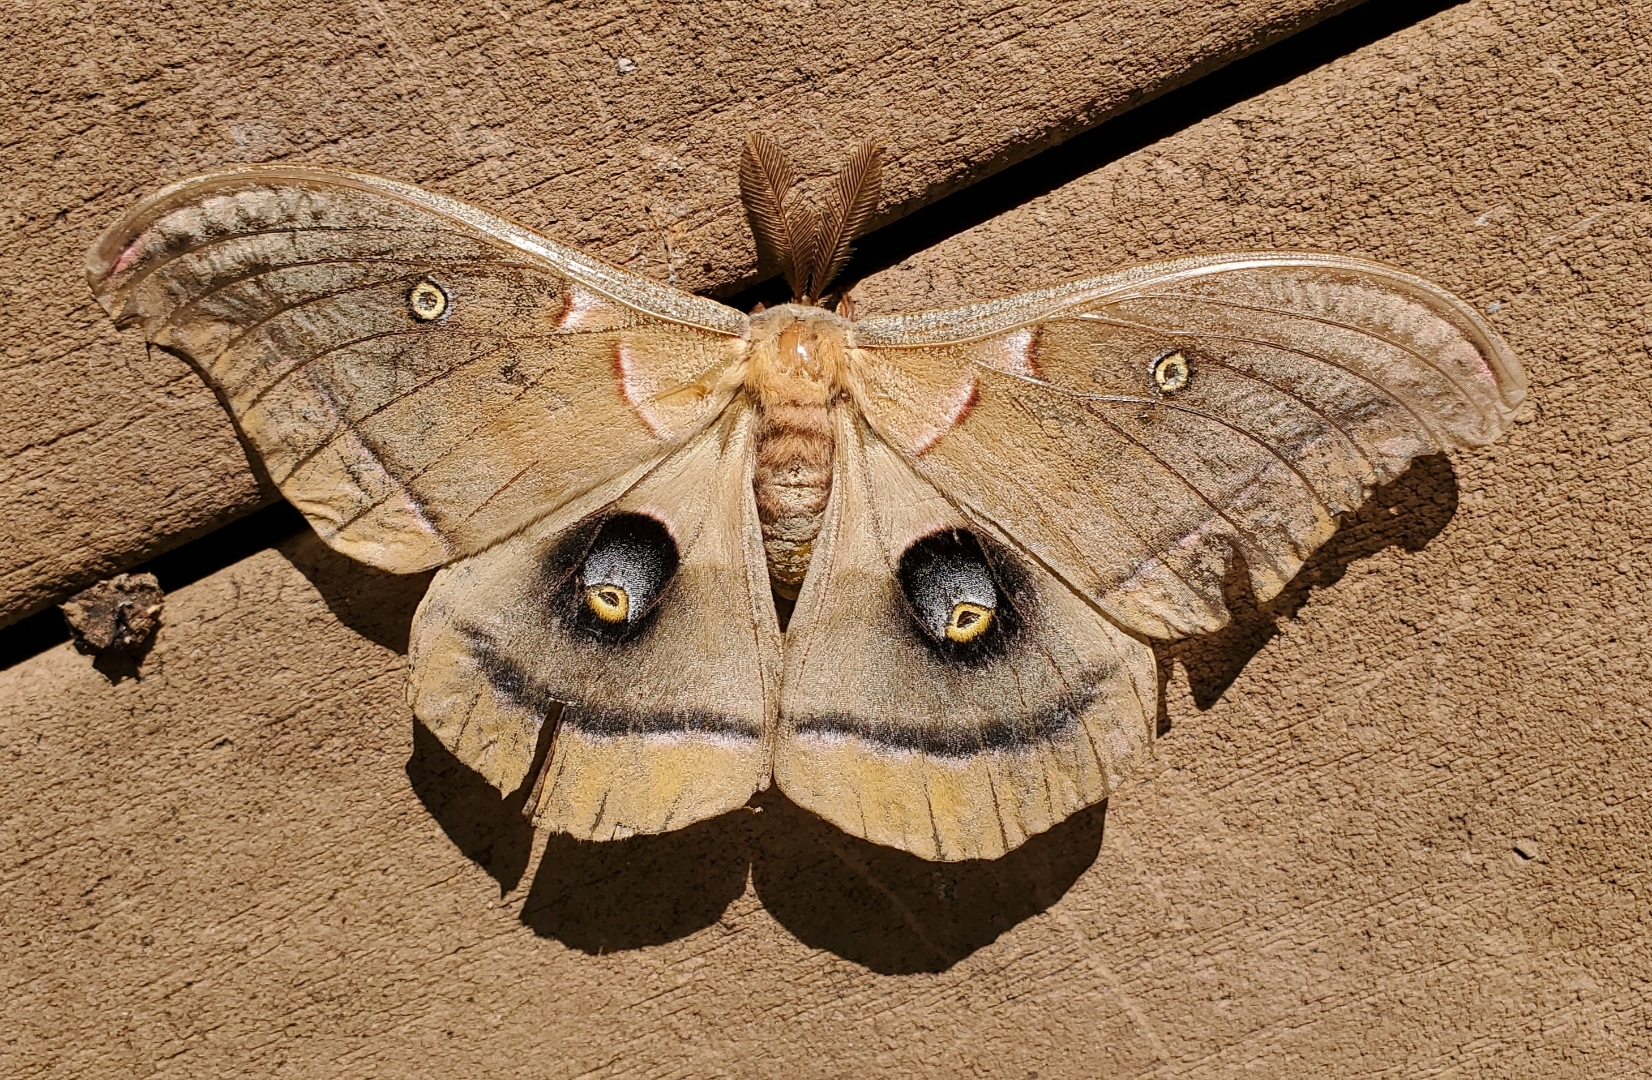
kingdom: Animalia
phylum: Arthropoda
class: Insecta
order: Lepidoptera
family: Saturniidae
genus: Antheraea
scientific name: Antheraea polyphemus
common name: Polyphemus moth
